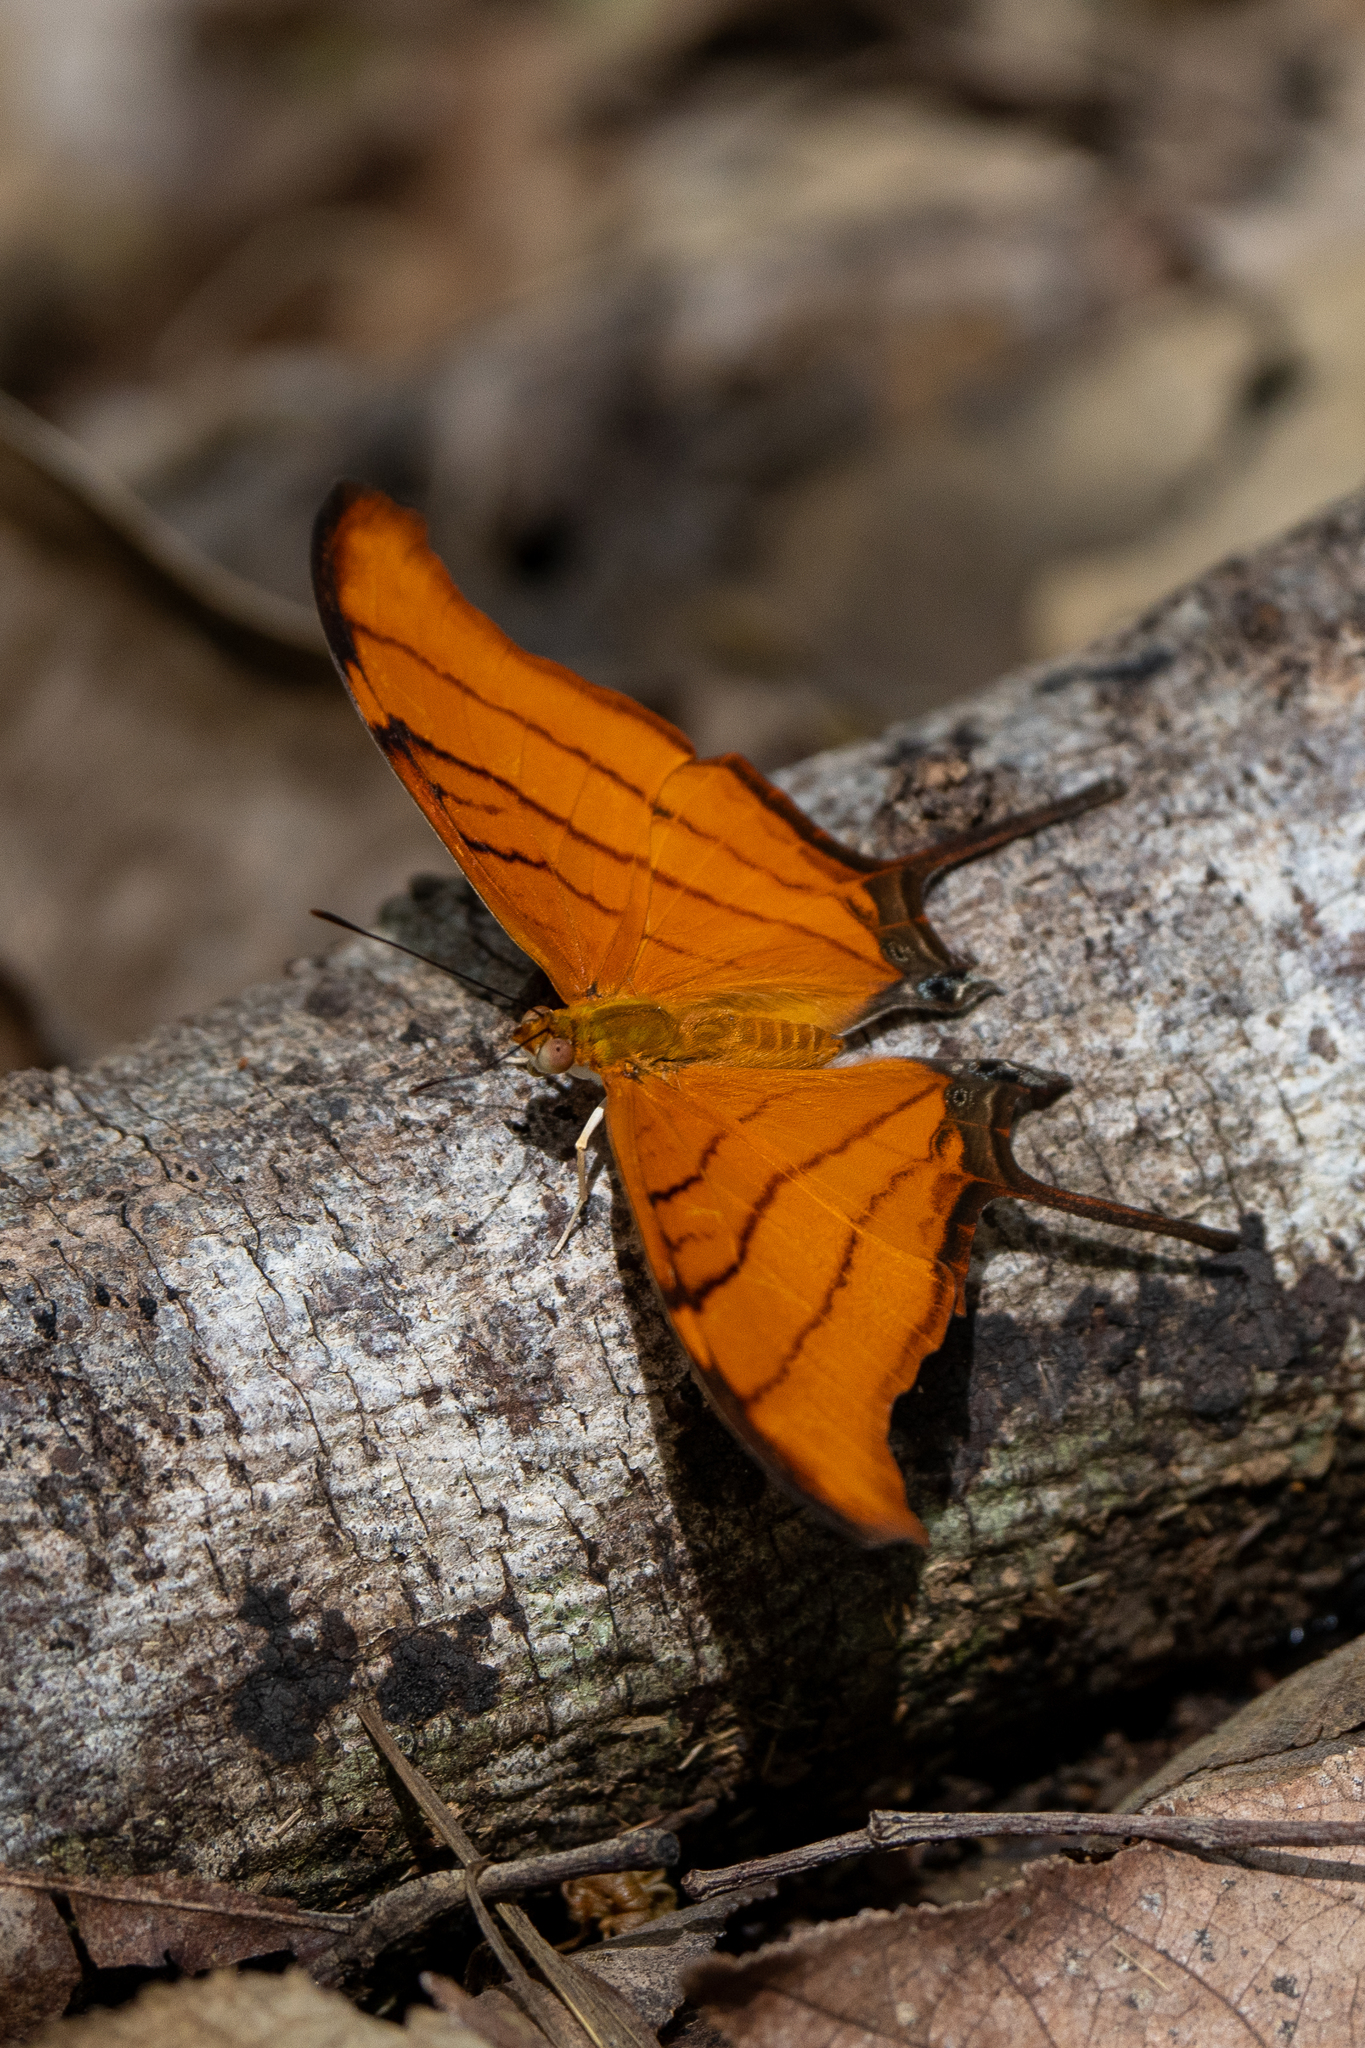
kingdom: Animalia
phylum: Arthropoda
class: Insecta
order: Lepidoptera
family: Nymphalidae
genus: Marpesia
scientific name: Marpesia petreus
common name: Red dagger wing
